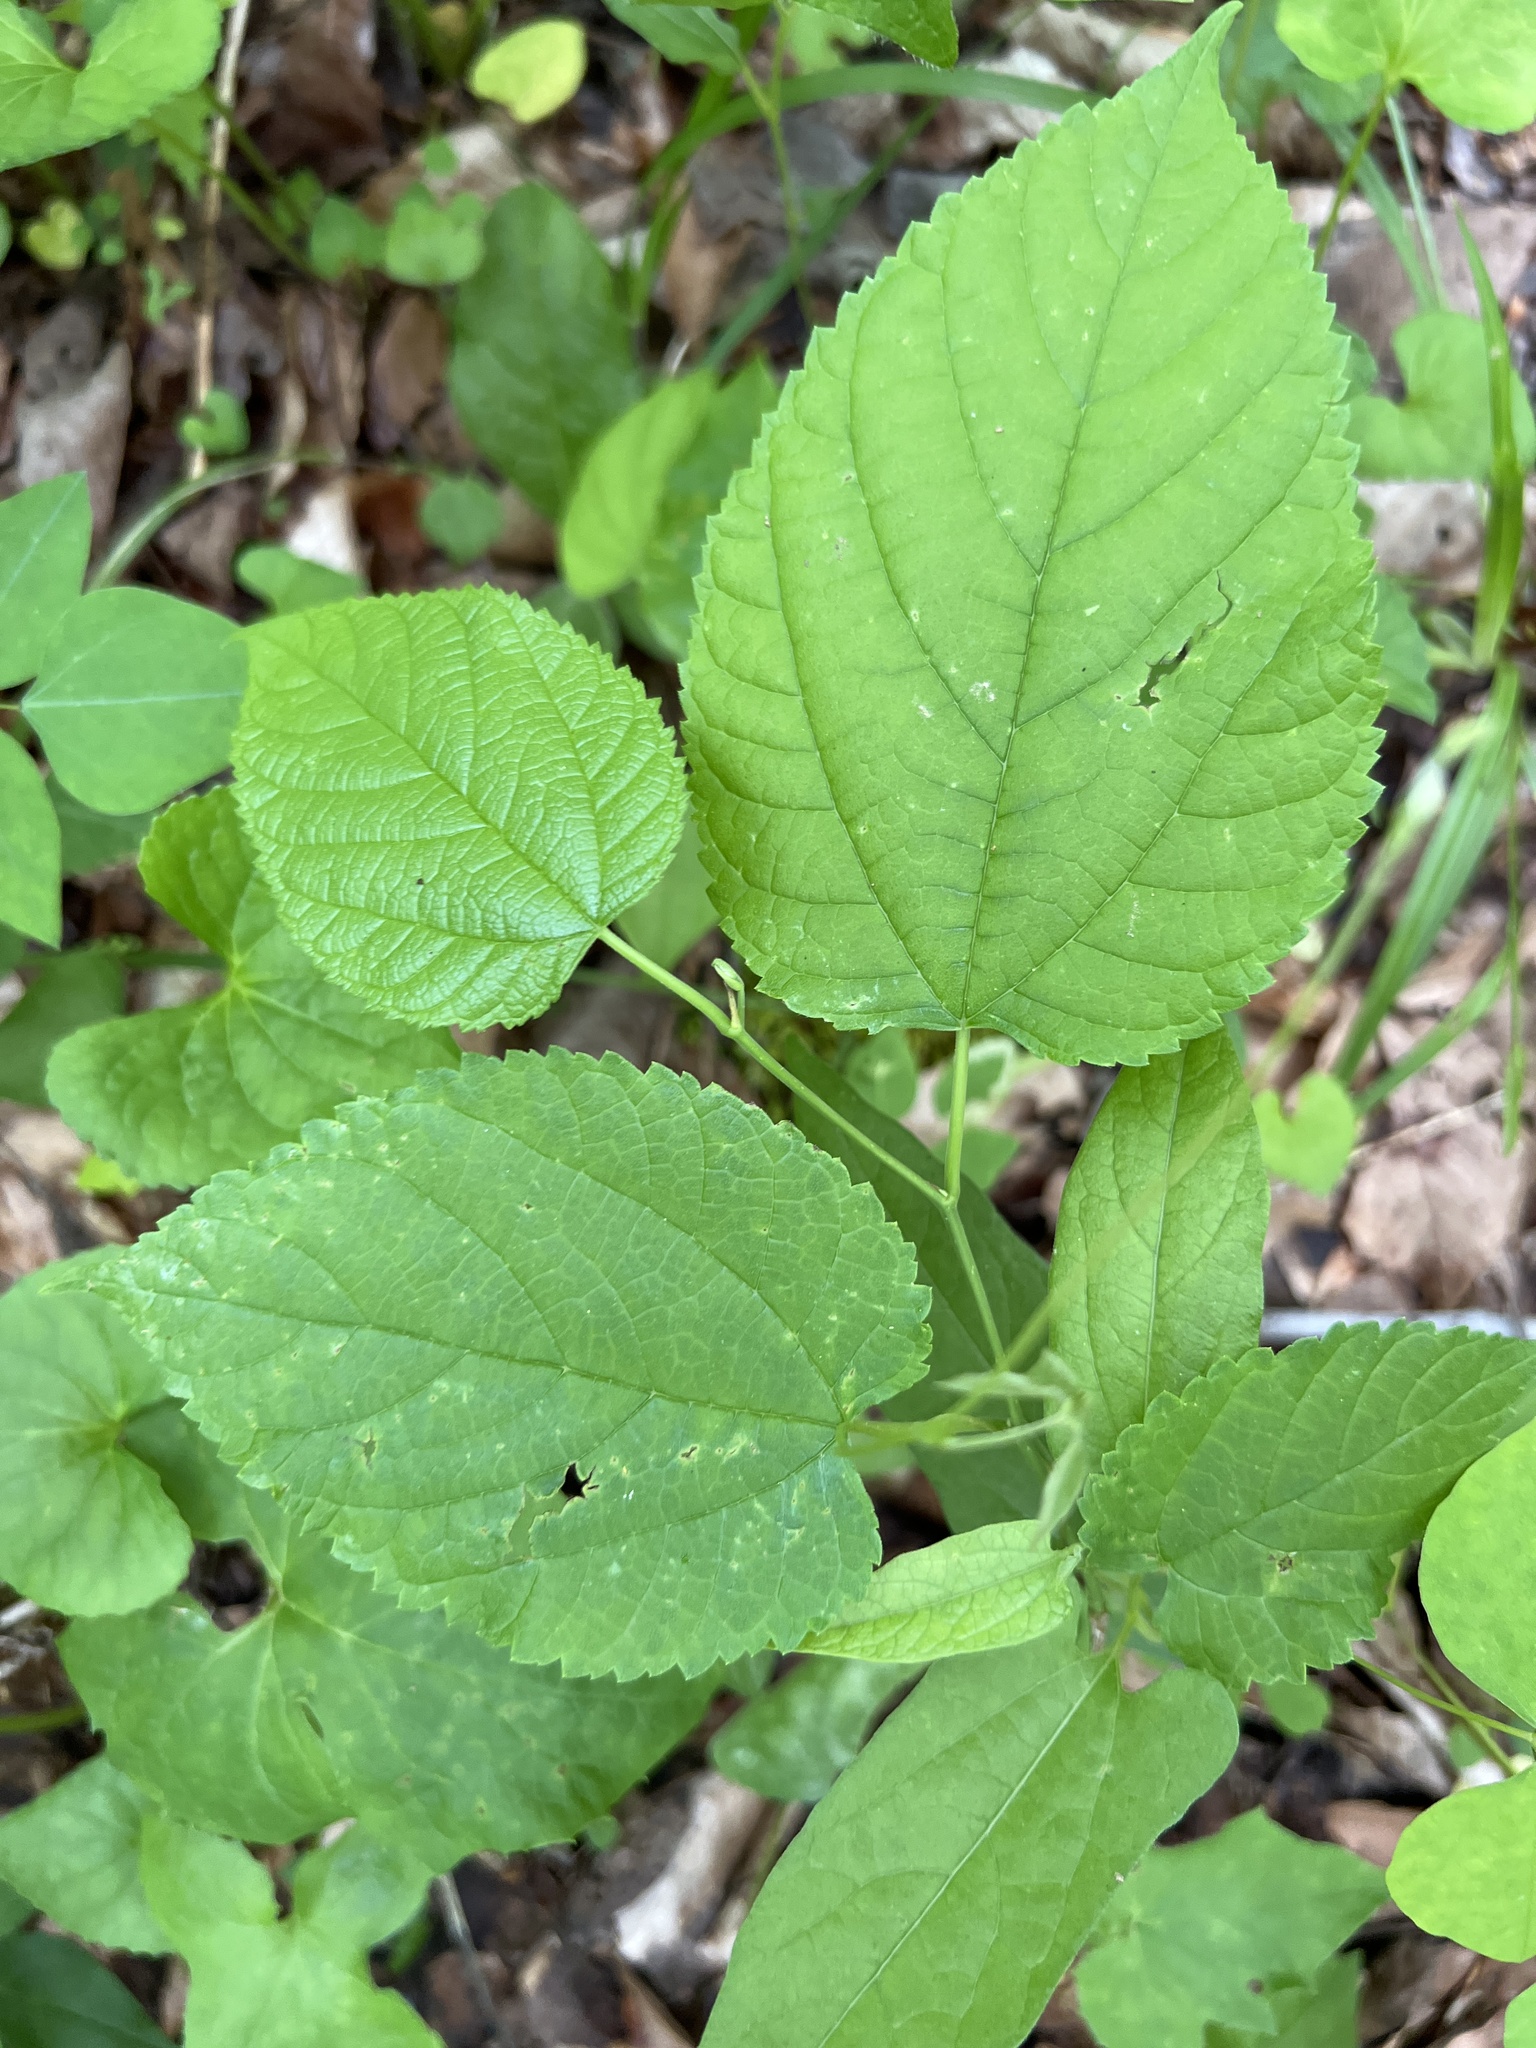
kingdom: Plantae
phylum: Tracheophyta
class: Magnoliopsida
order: Rosales
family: Moraceae
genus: Morus
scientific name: Morus rubra
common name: Red mulberry
